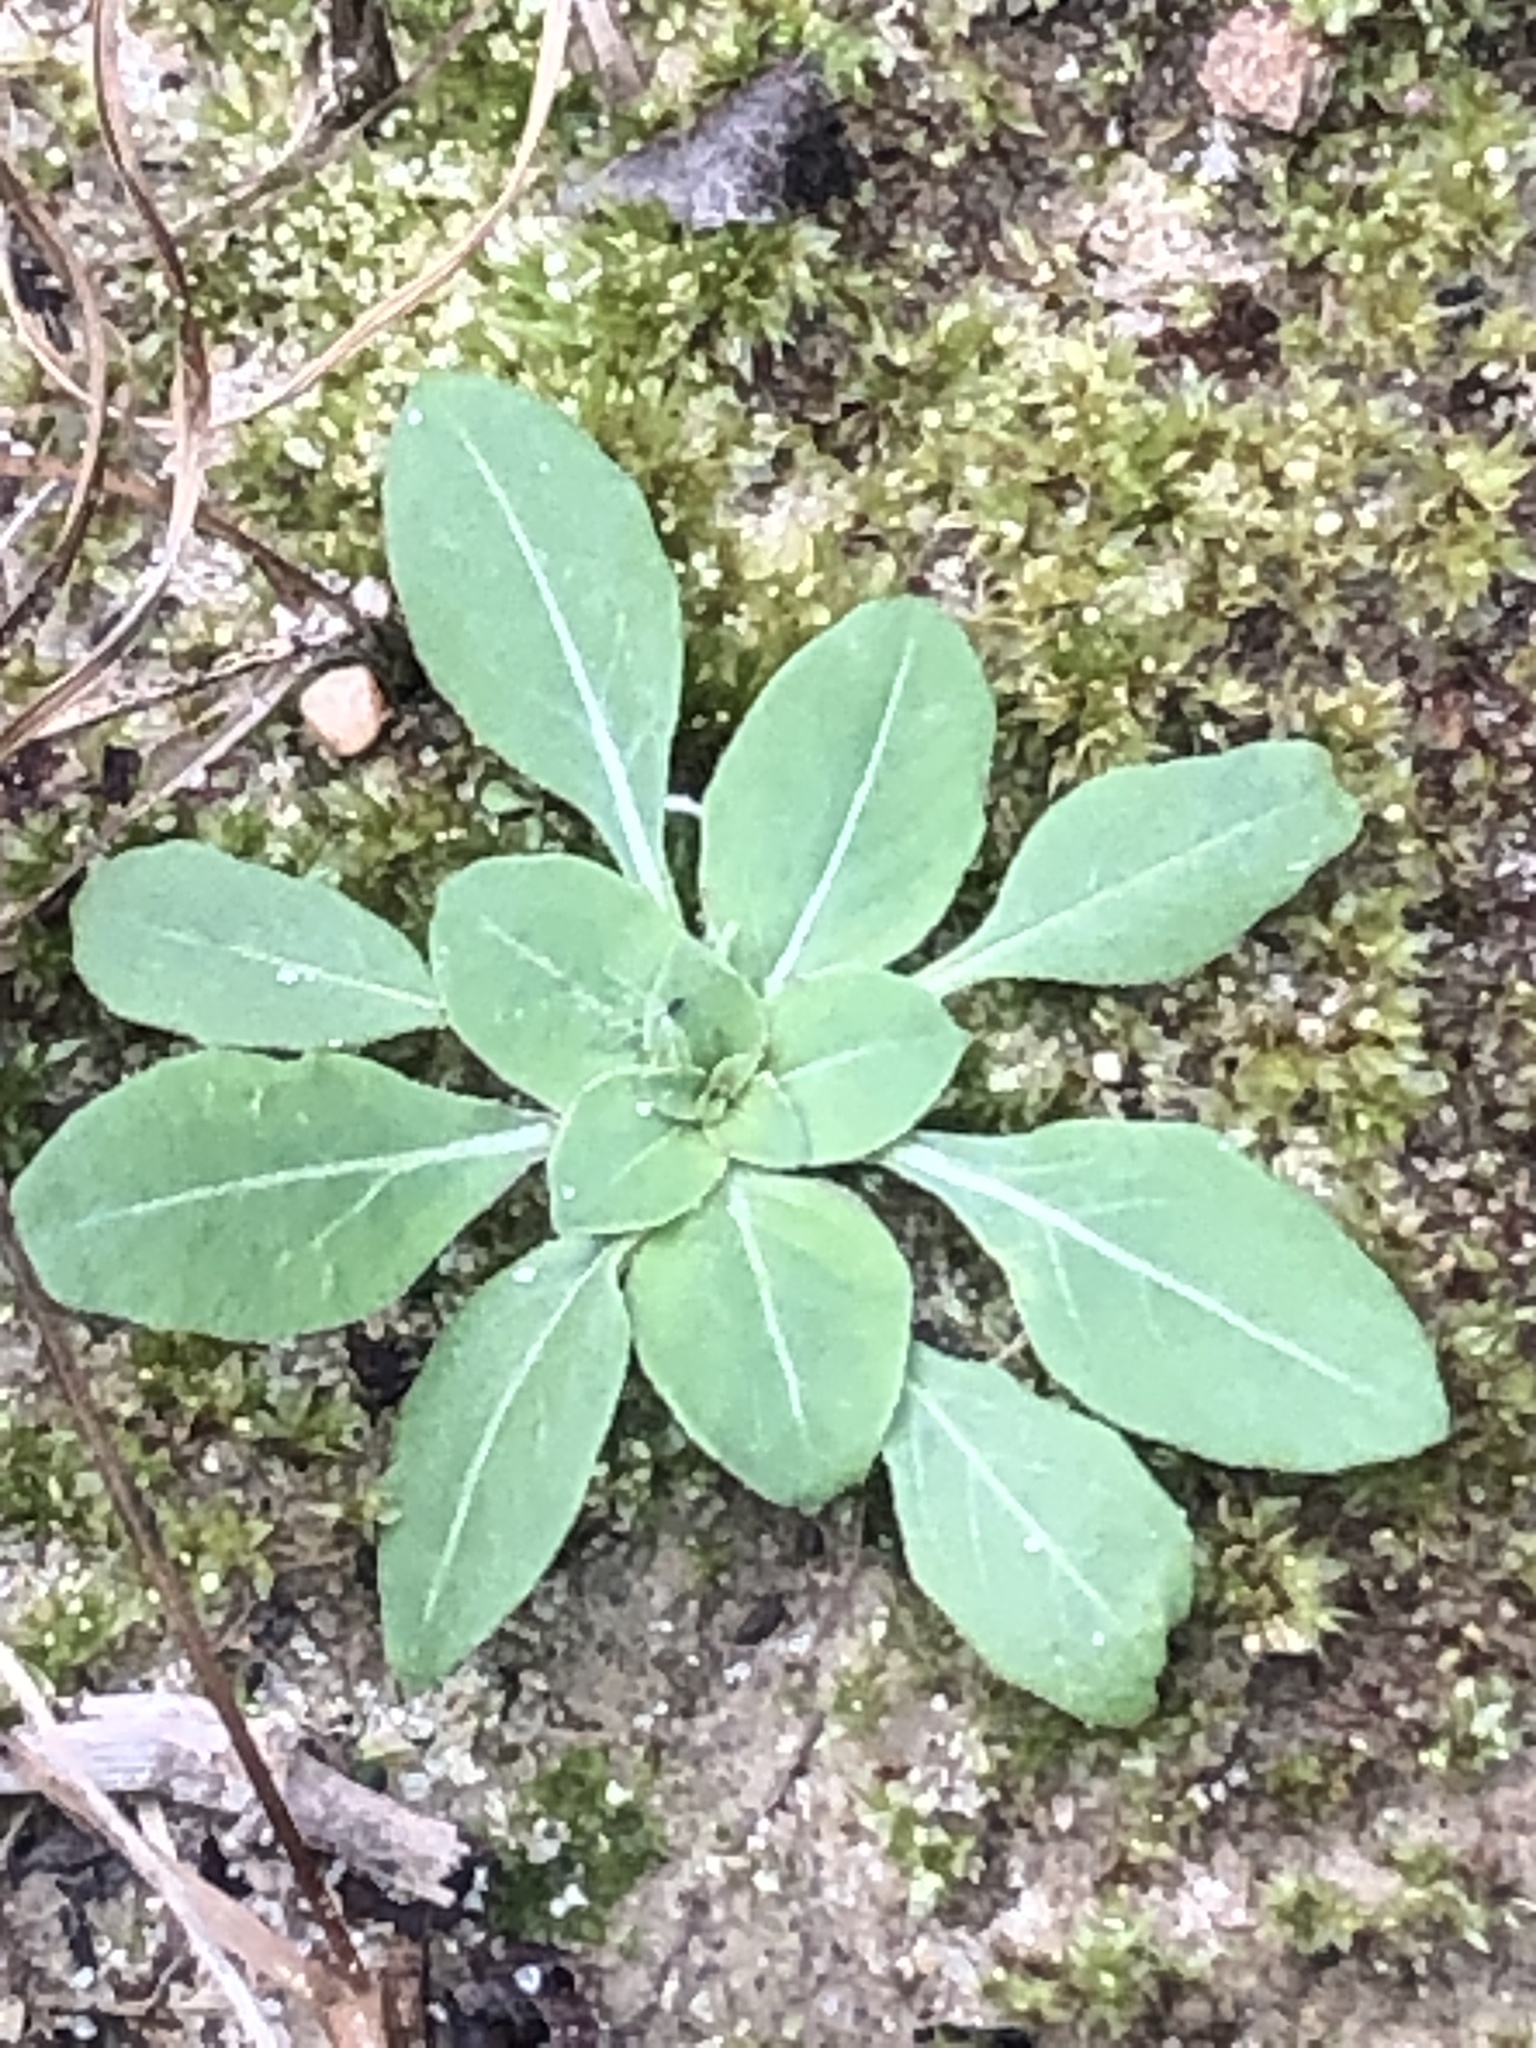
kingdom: Plantae
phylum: Tracheophyta
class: Magnoliopsida
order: Lamiales
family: Scrophulariaceae
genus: Verbascum
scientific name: Verbascum thapsus
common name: Common mullein
